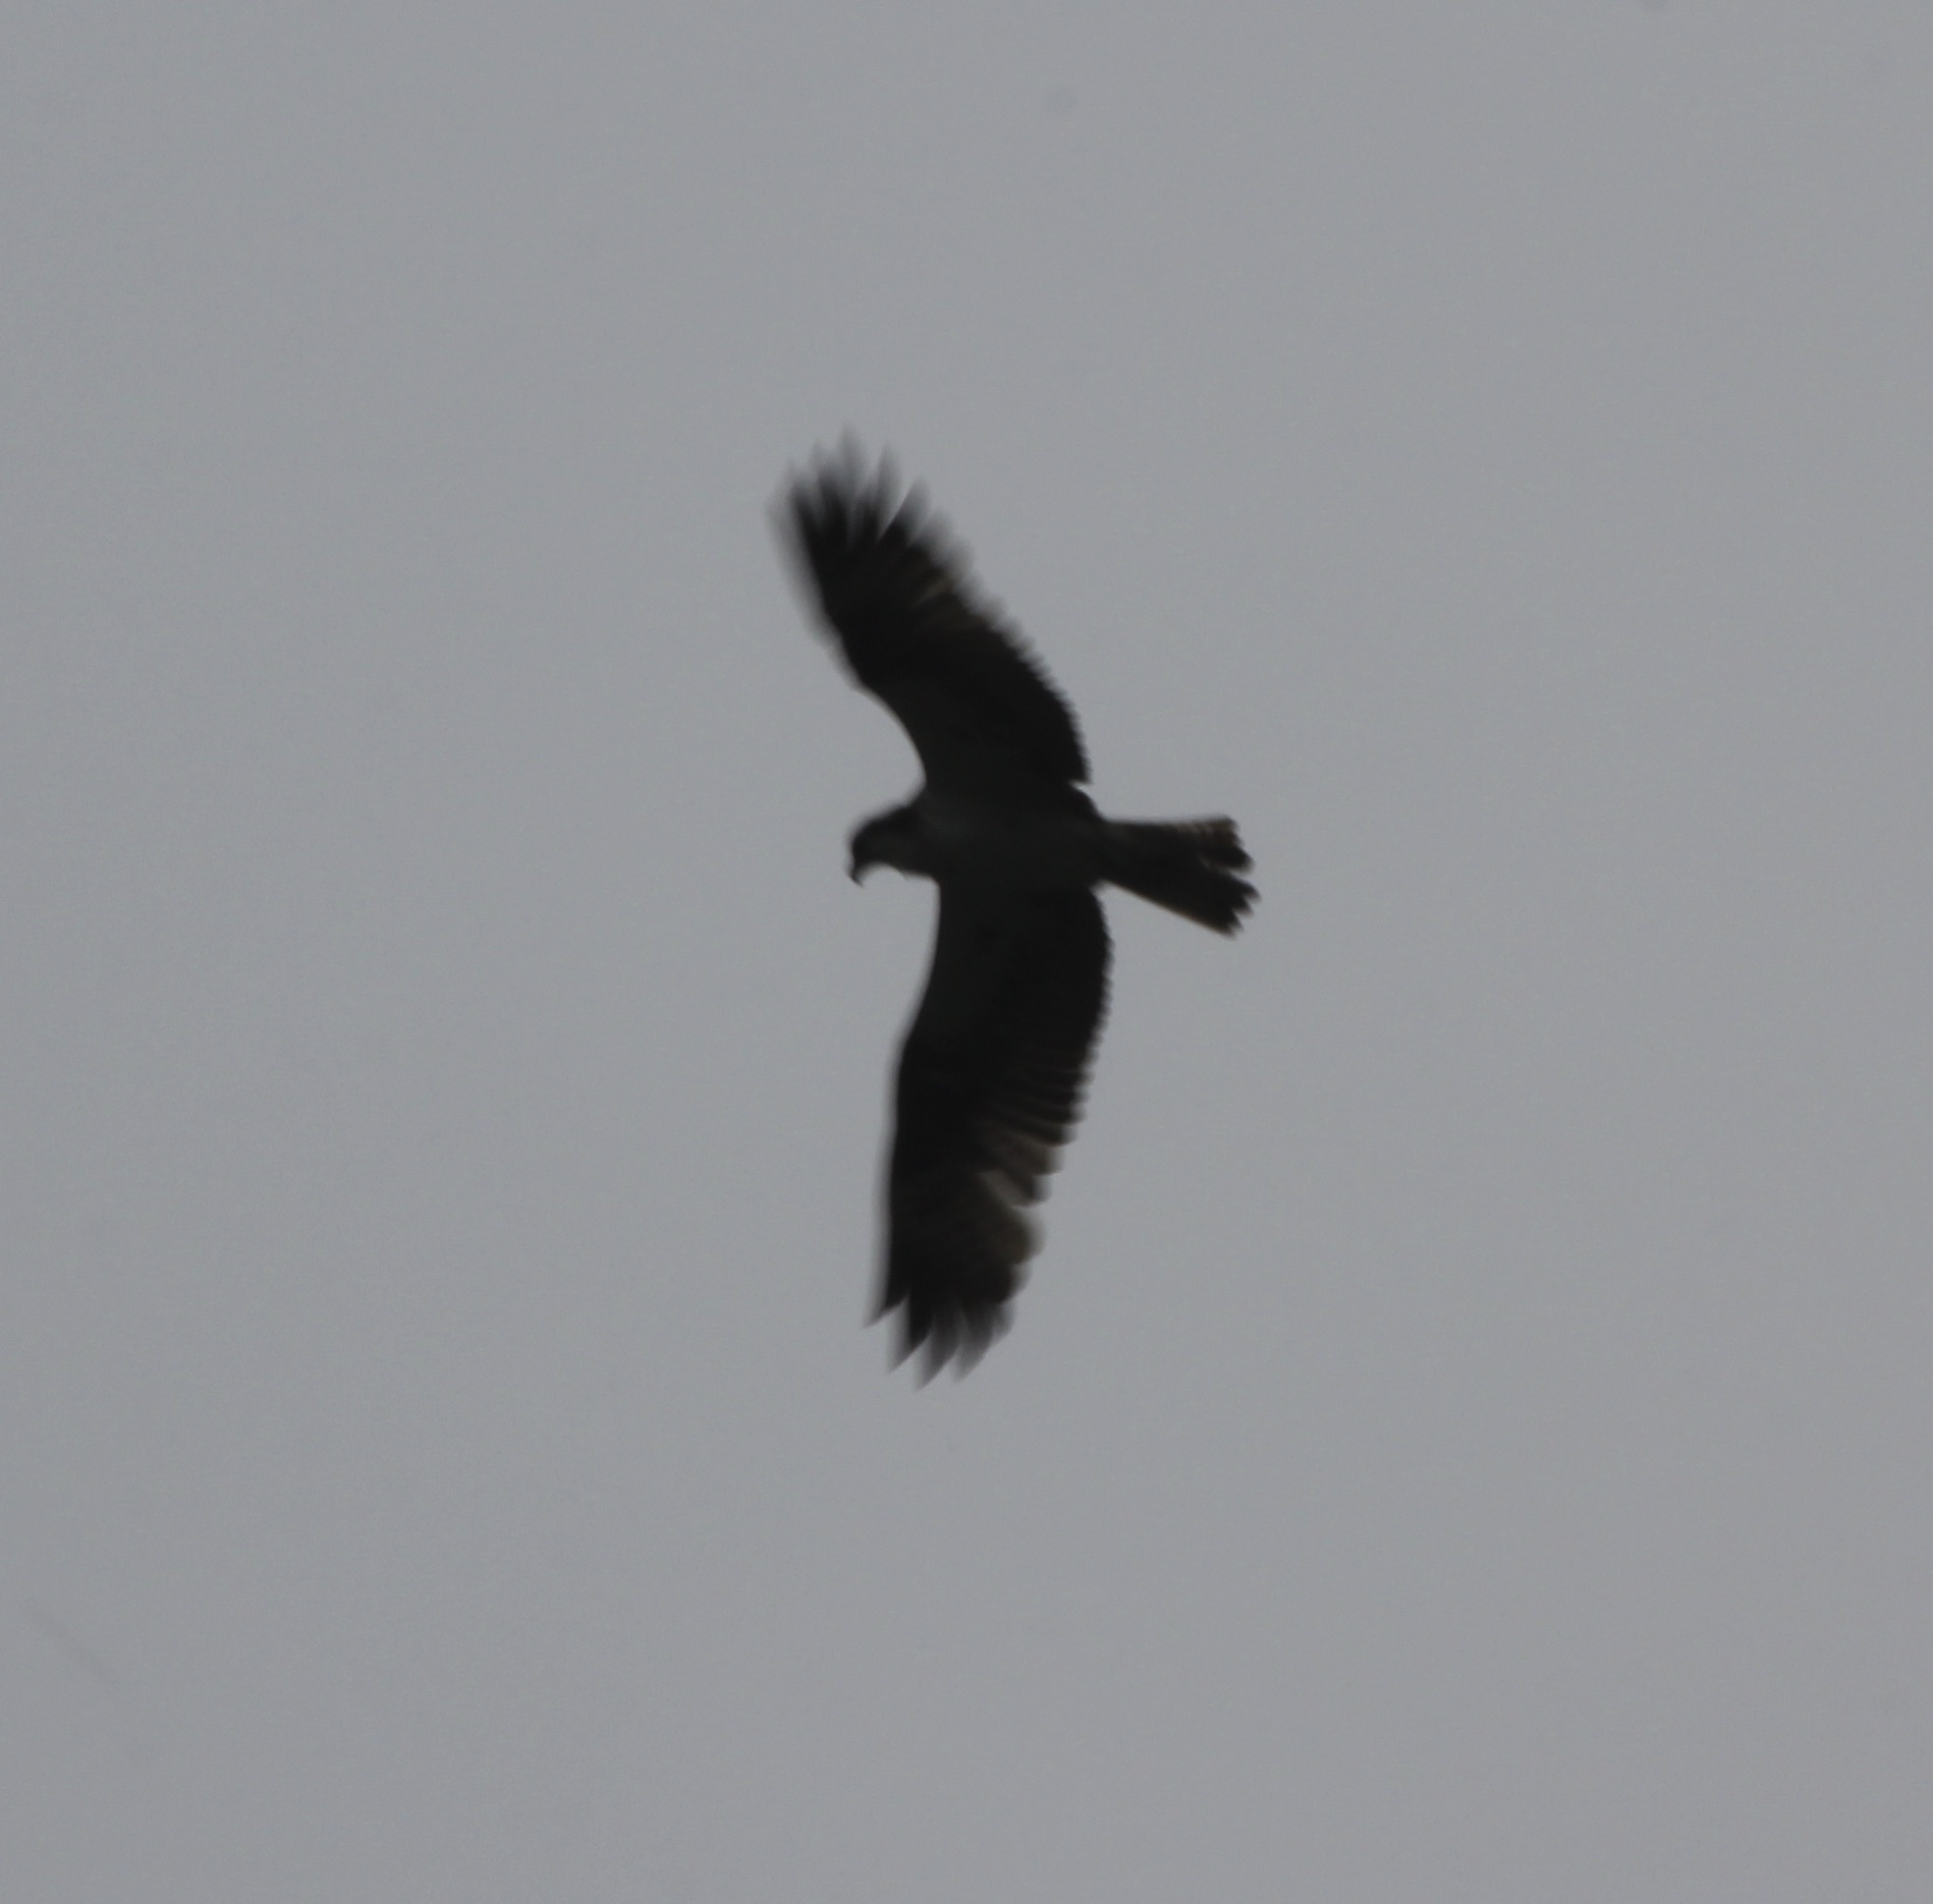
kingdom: Animalia
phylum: Chordata
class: Aves
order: Accipitriformes
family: Pandionidae
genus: Pandion
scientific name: Pandion haliaetus
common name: Osprey
